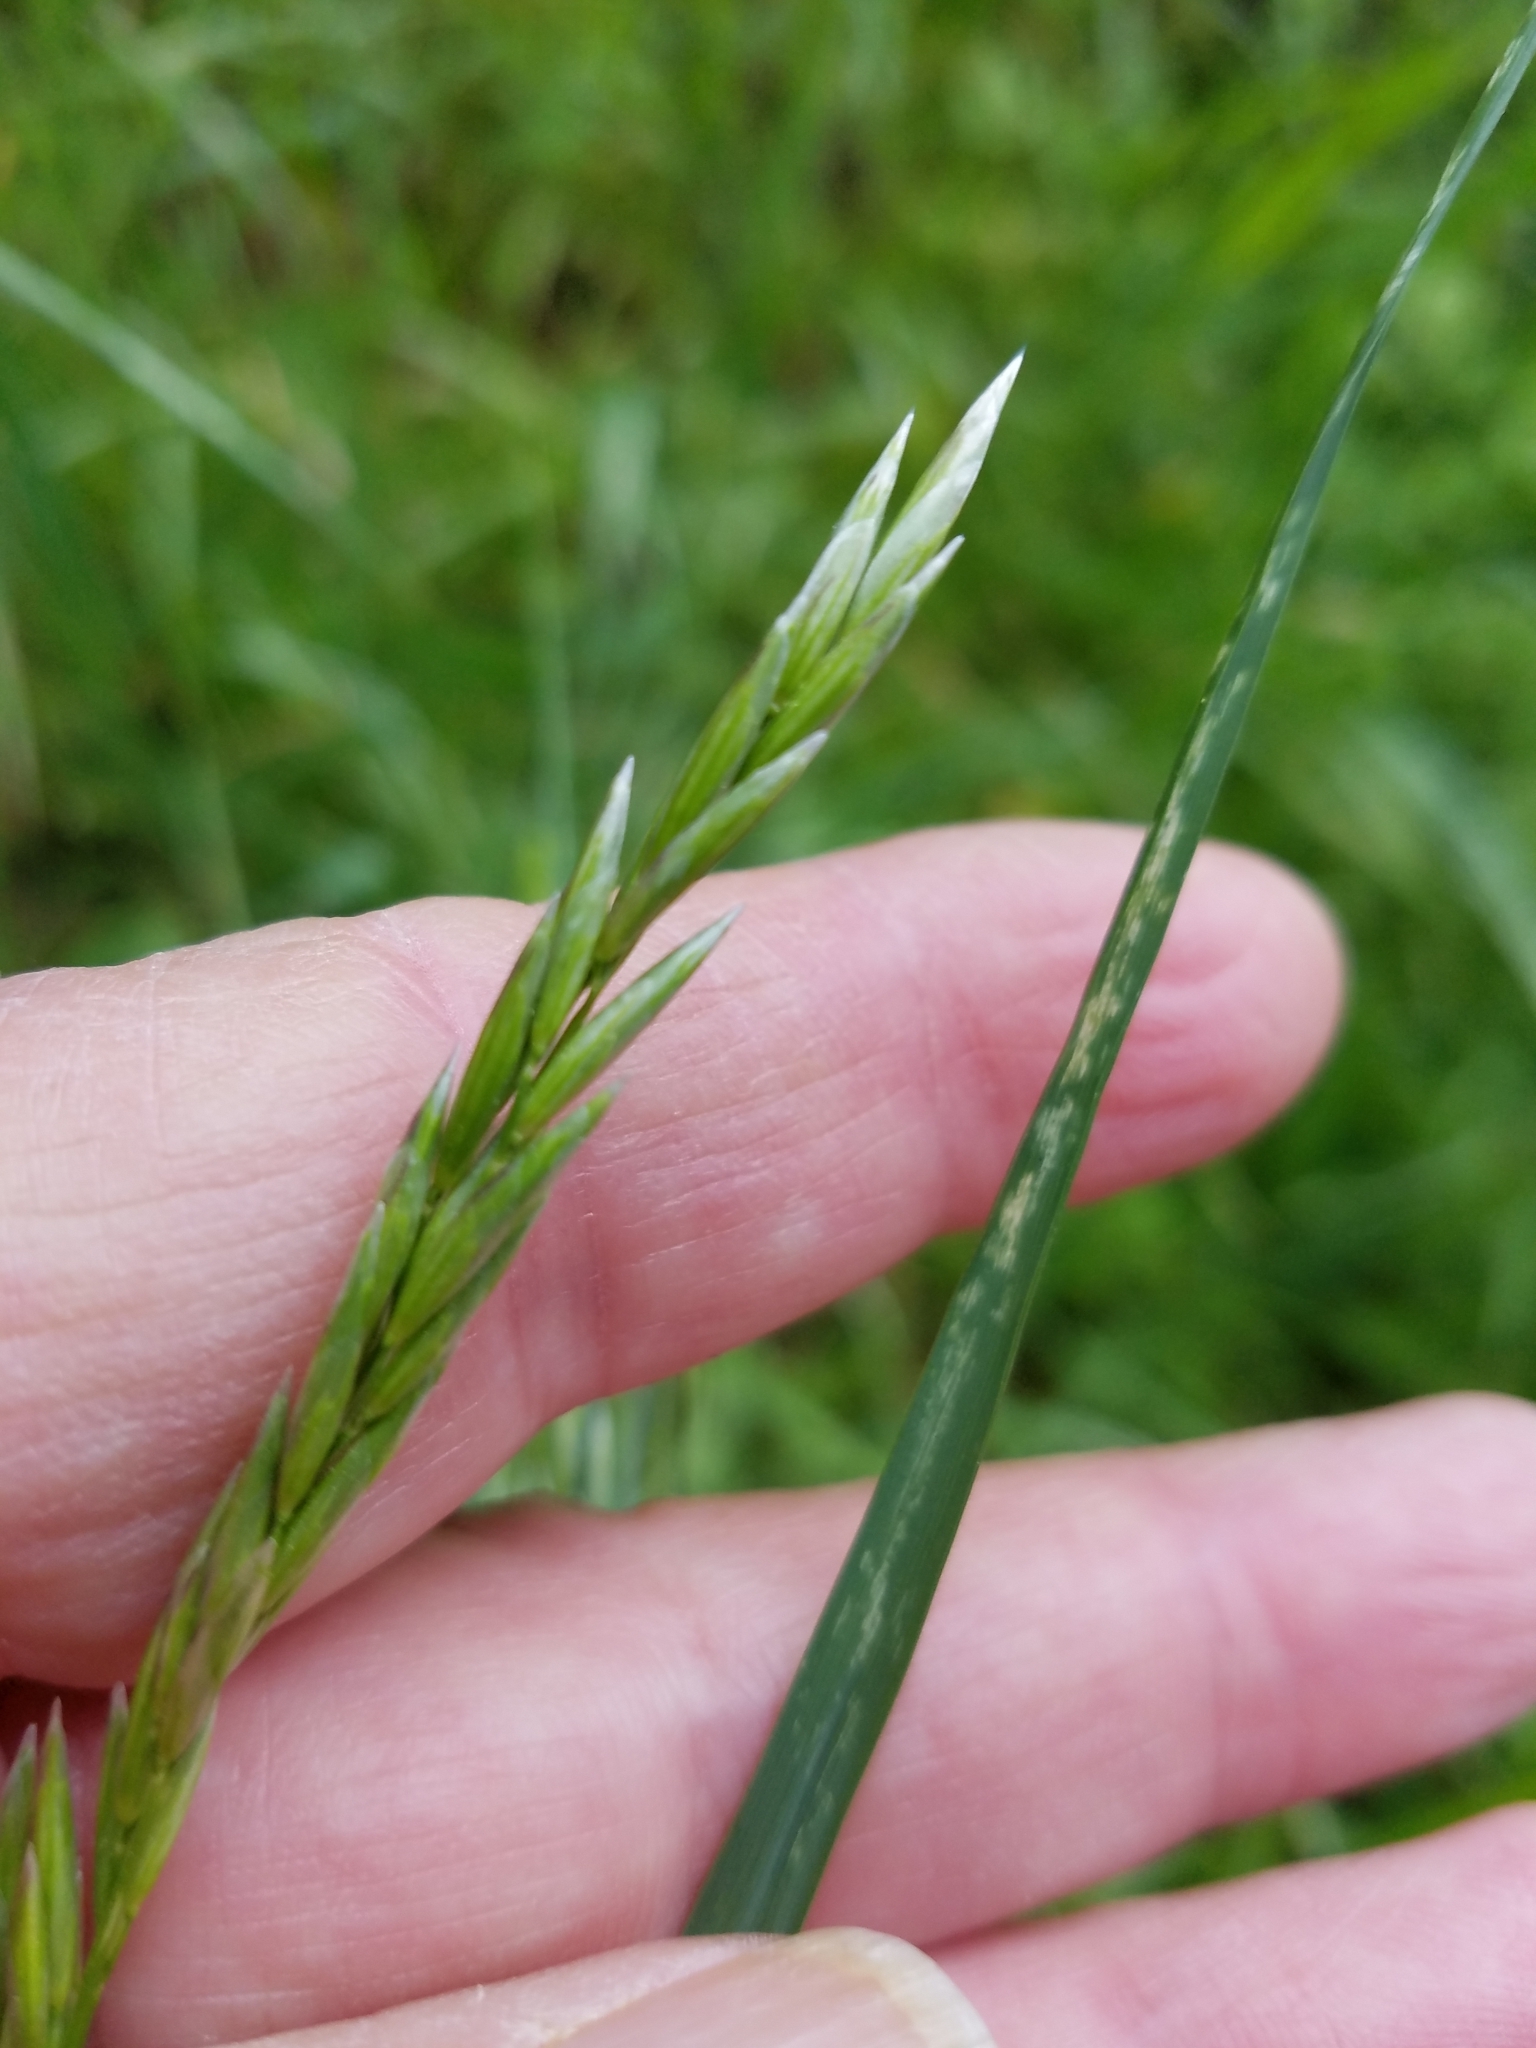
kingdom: Plantae
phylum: Tracheophyta
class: Liliopsida
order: Poales
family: Poaceae
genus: Melica
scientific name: Melica californica
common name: California melic
